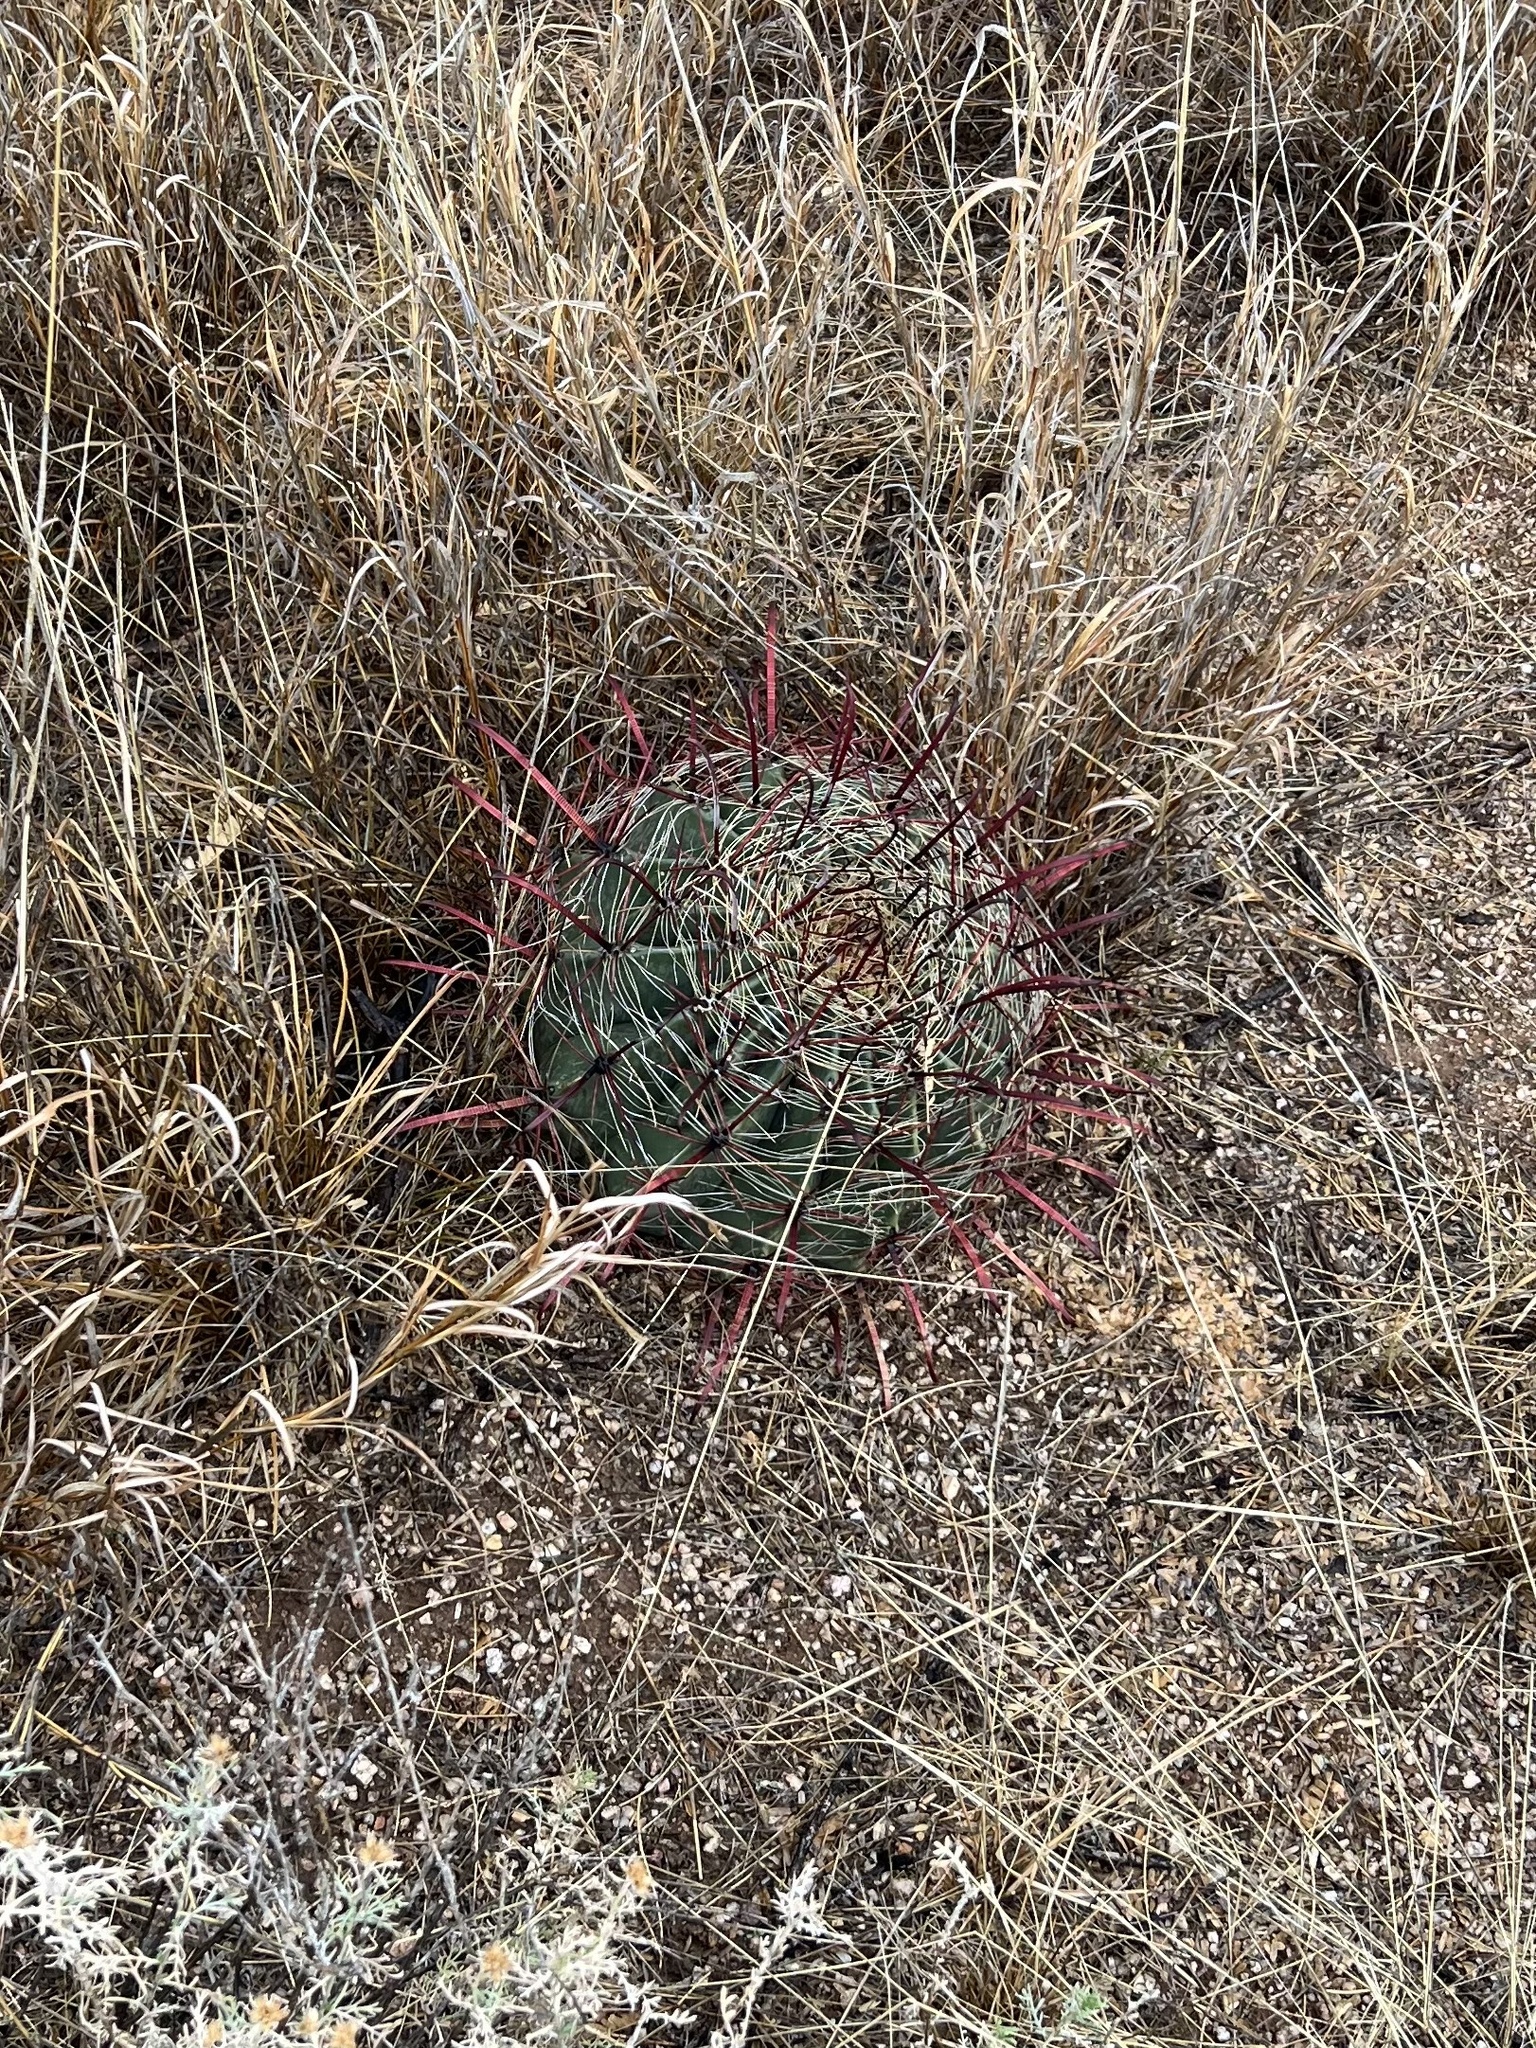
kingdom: Plantae
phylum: Tracheophyta
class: Magnoliopsida
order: Caryophyllales
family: Cactaceae
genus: Ferocactus
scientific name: Ferocactus wislizeni
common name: Candy barrel cactus
